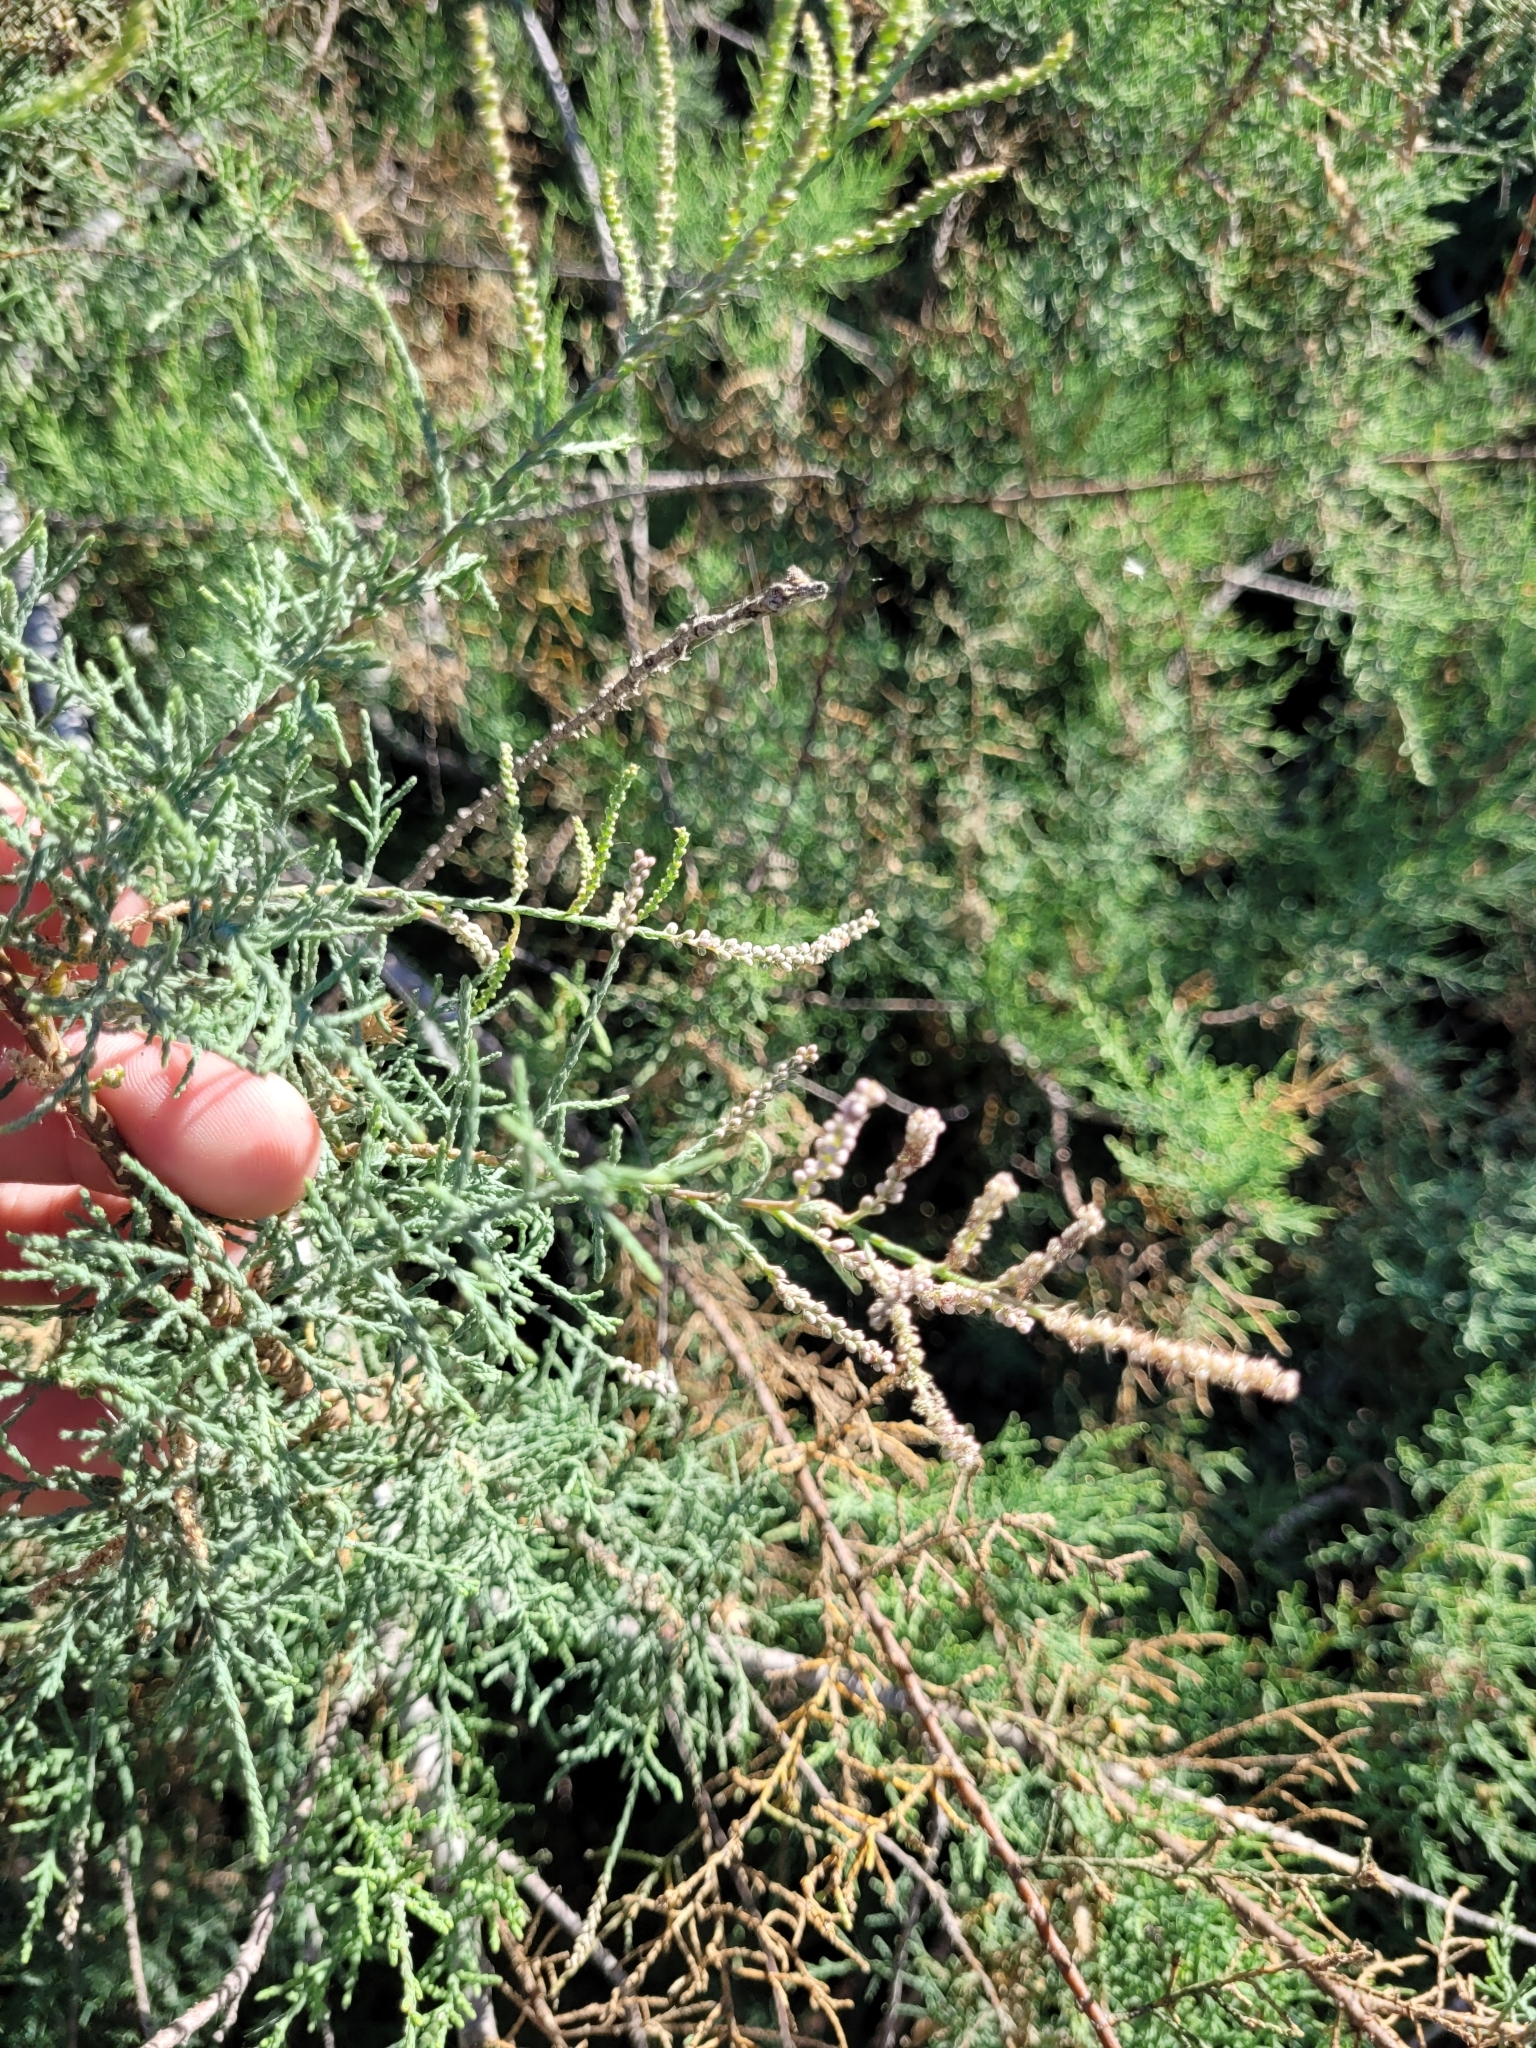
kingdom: Plantae
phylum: Tracheophyta
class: Magnoliopsida
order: Caryophyllales
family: Tamaricaceae
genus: Tamarix
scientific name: Tamarix canariensis
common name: Canary island tamarisk
